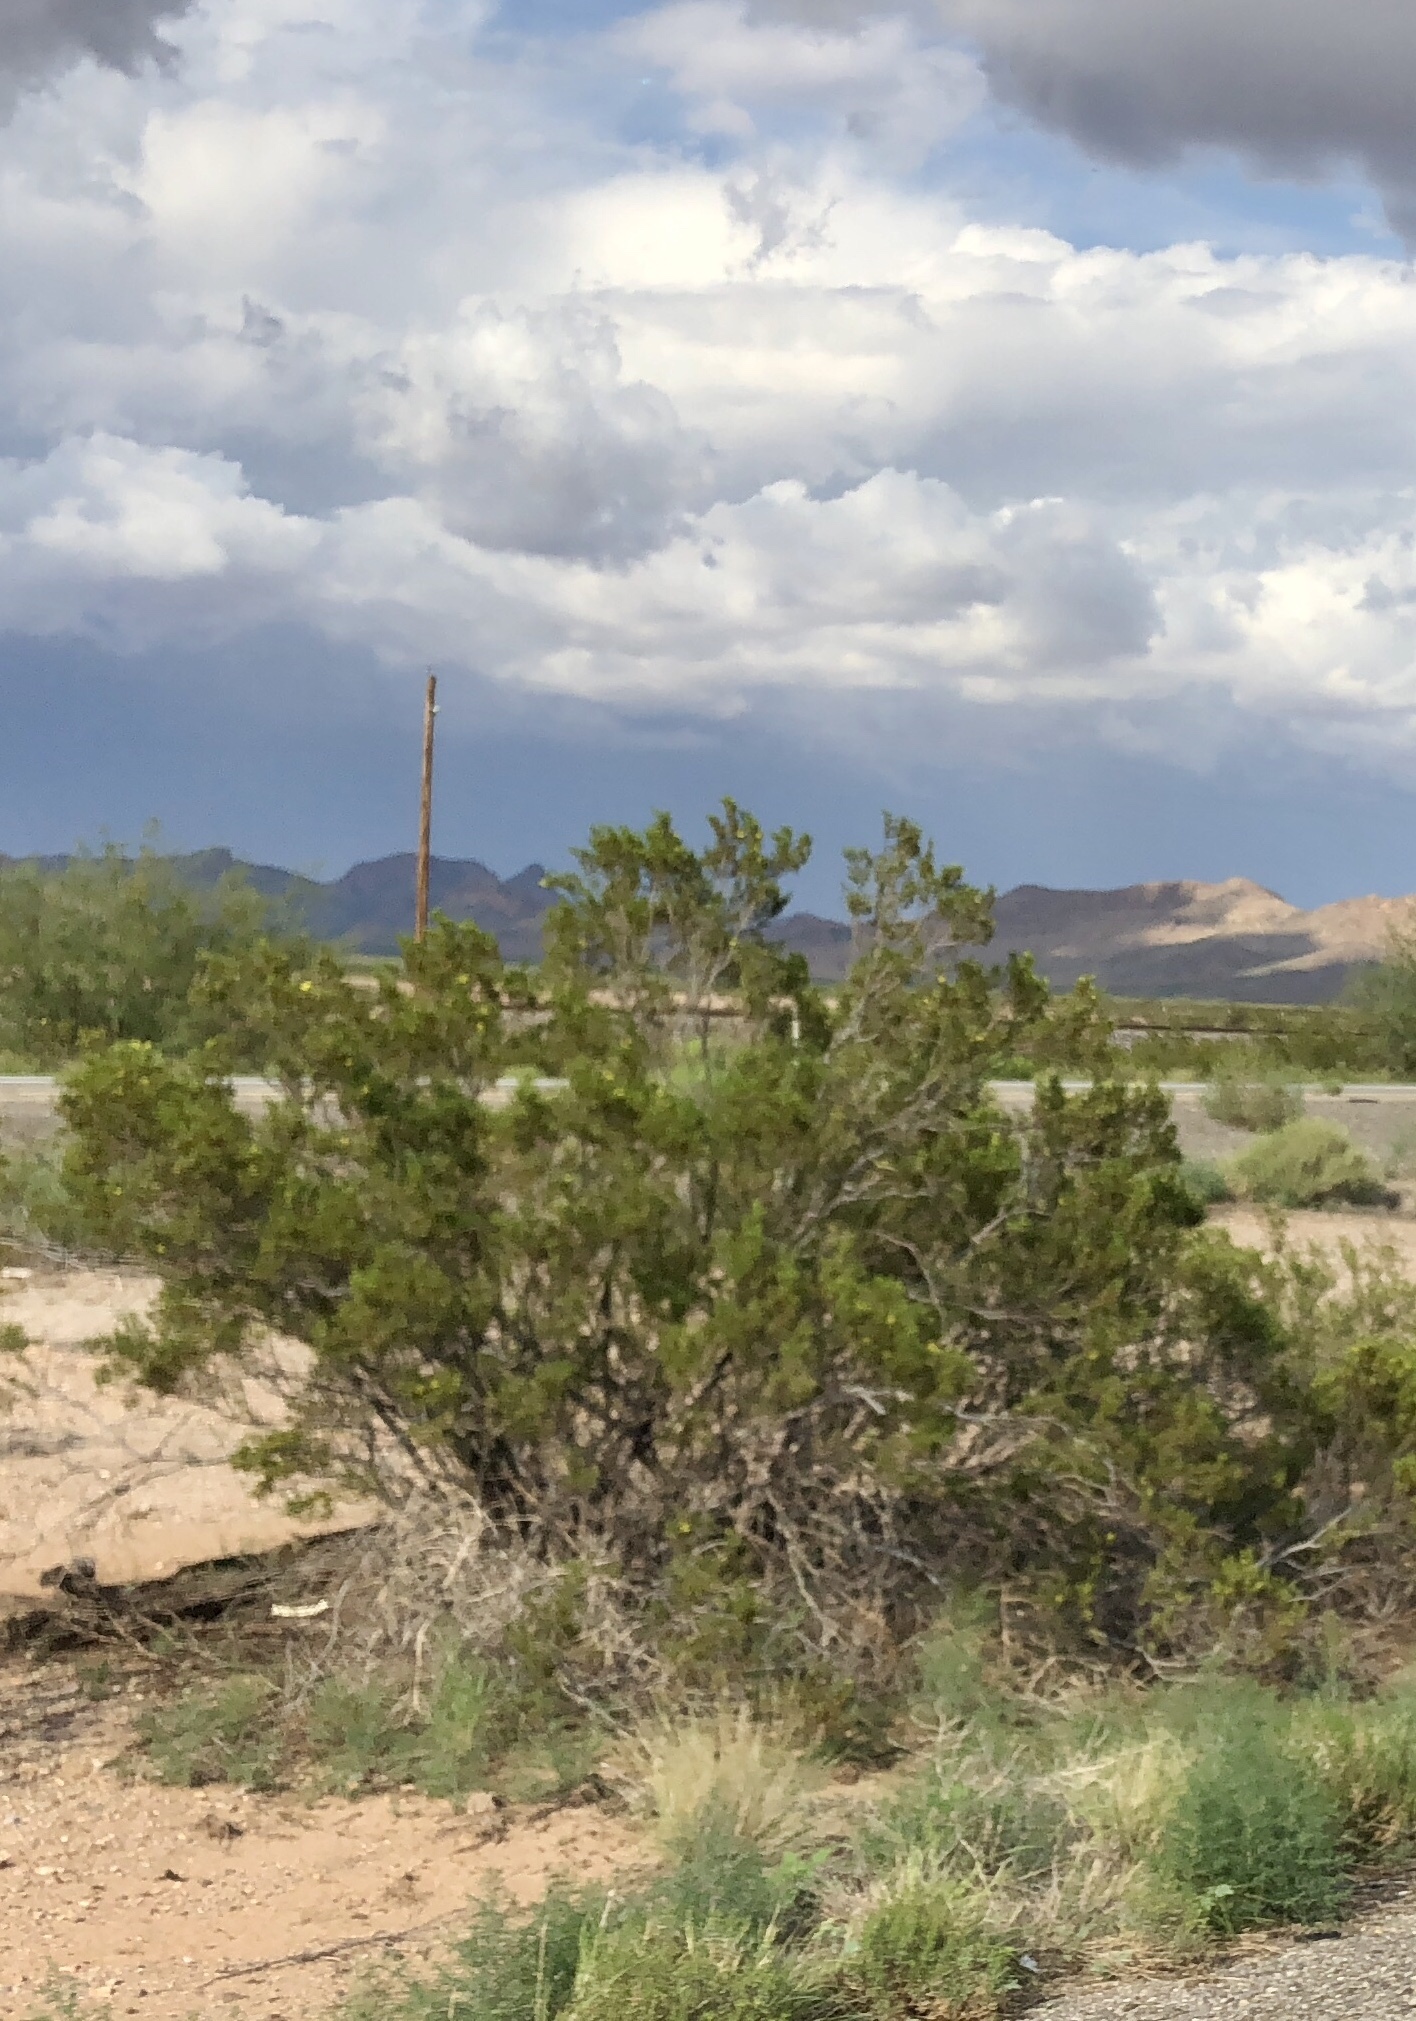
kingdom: Plantae
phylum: Tracheophyta
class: Magnoliopsida
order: Zygophyllales
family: Zygophyllaceae
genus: Larrea
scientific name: Larrea tridentata
